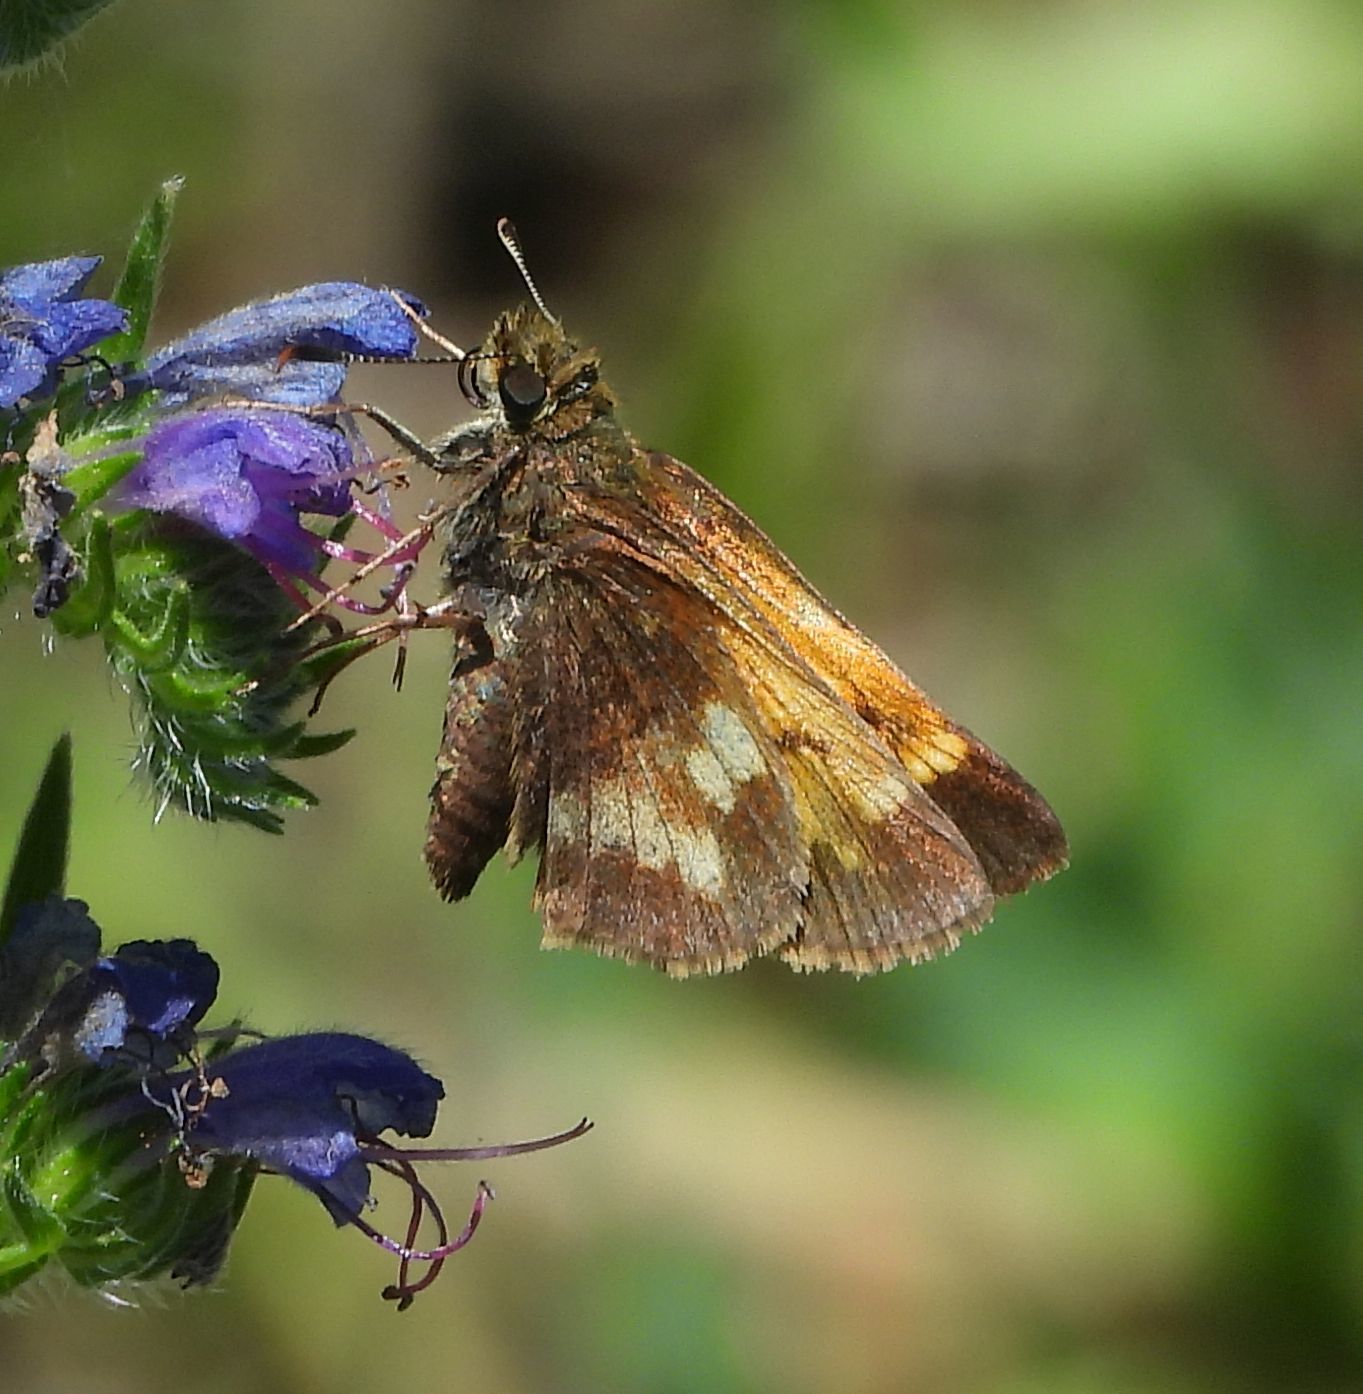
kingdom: Animalia
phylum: Arthropoda
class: Insecta
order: Lepidoptera
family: Hesperiidae
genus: Lon
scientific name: Lon hobomok
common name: Hobomok skipper
